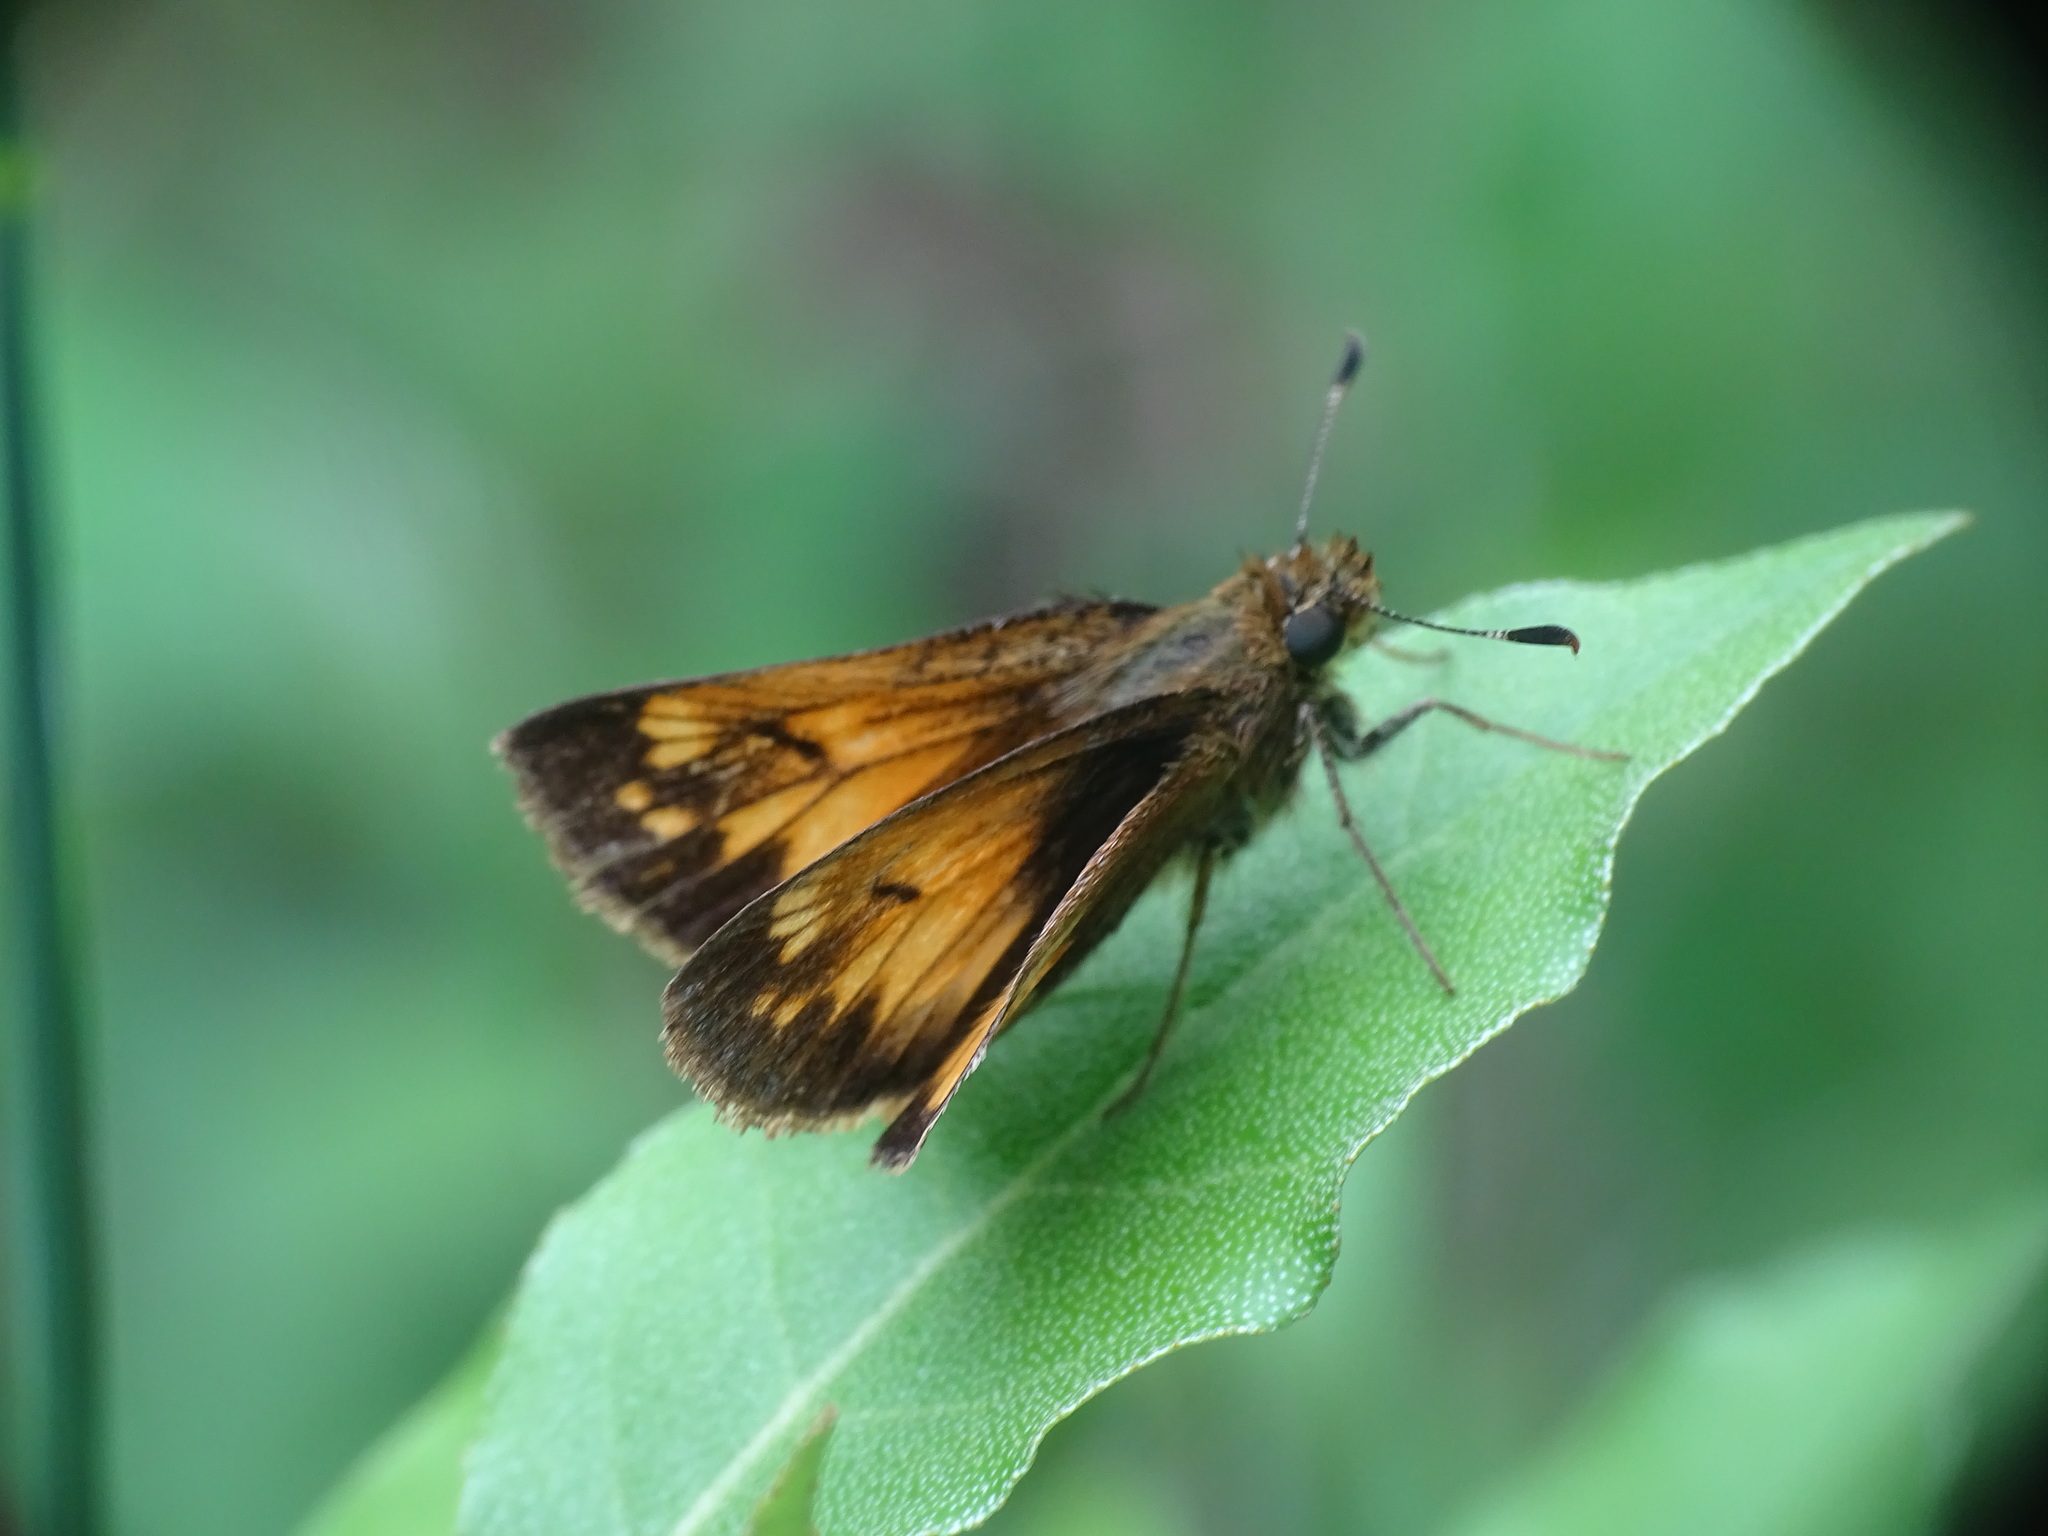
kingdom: Animalia
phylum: Arthropoda
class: Insecta
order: Lepidoptera
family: Hesperiidae
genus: Lon
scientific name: Lon hobomok
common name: Hobomok skipper
